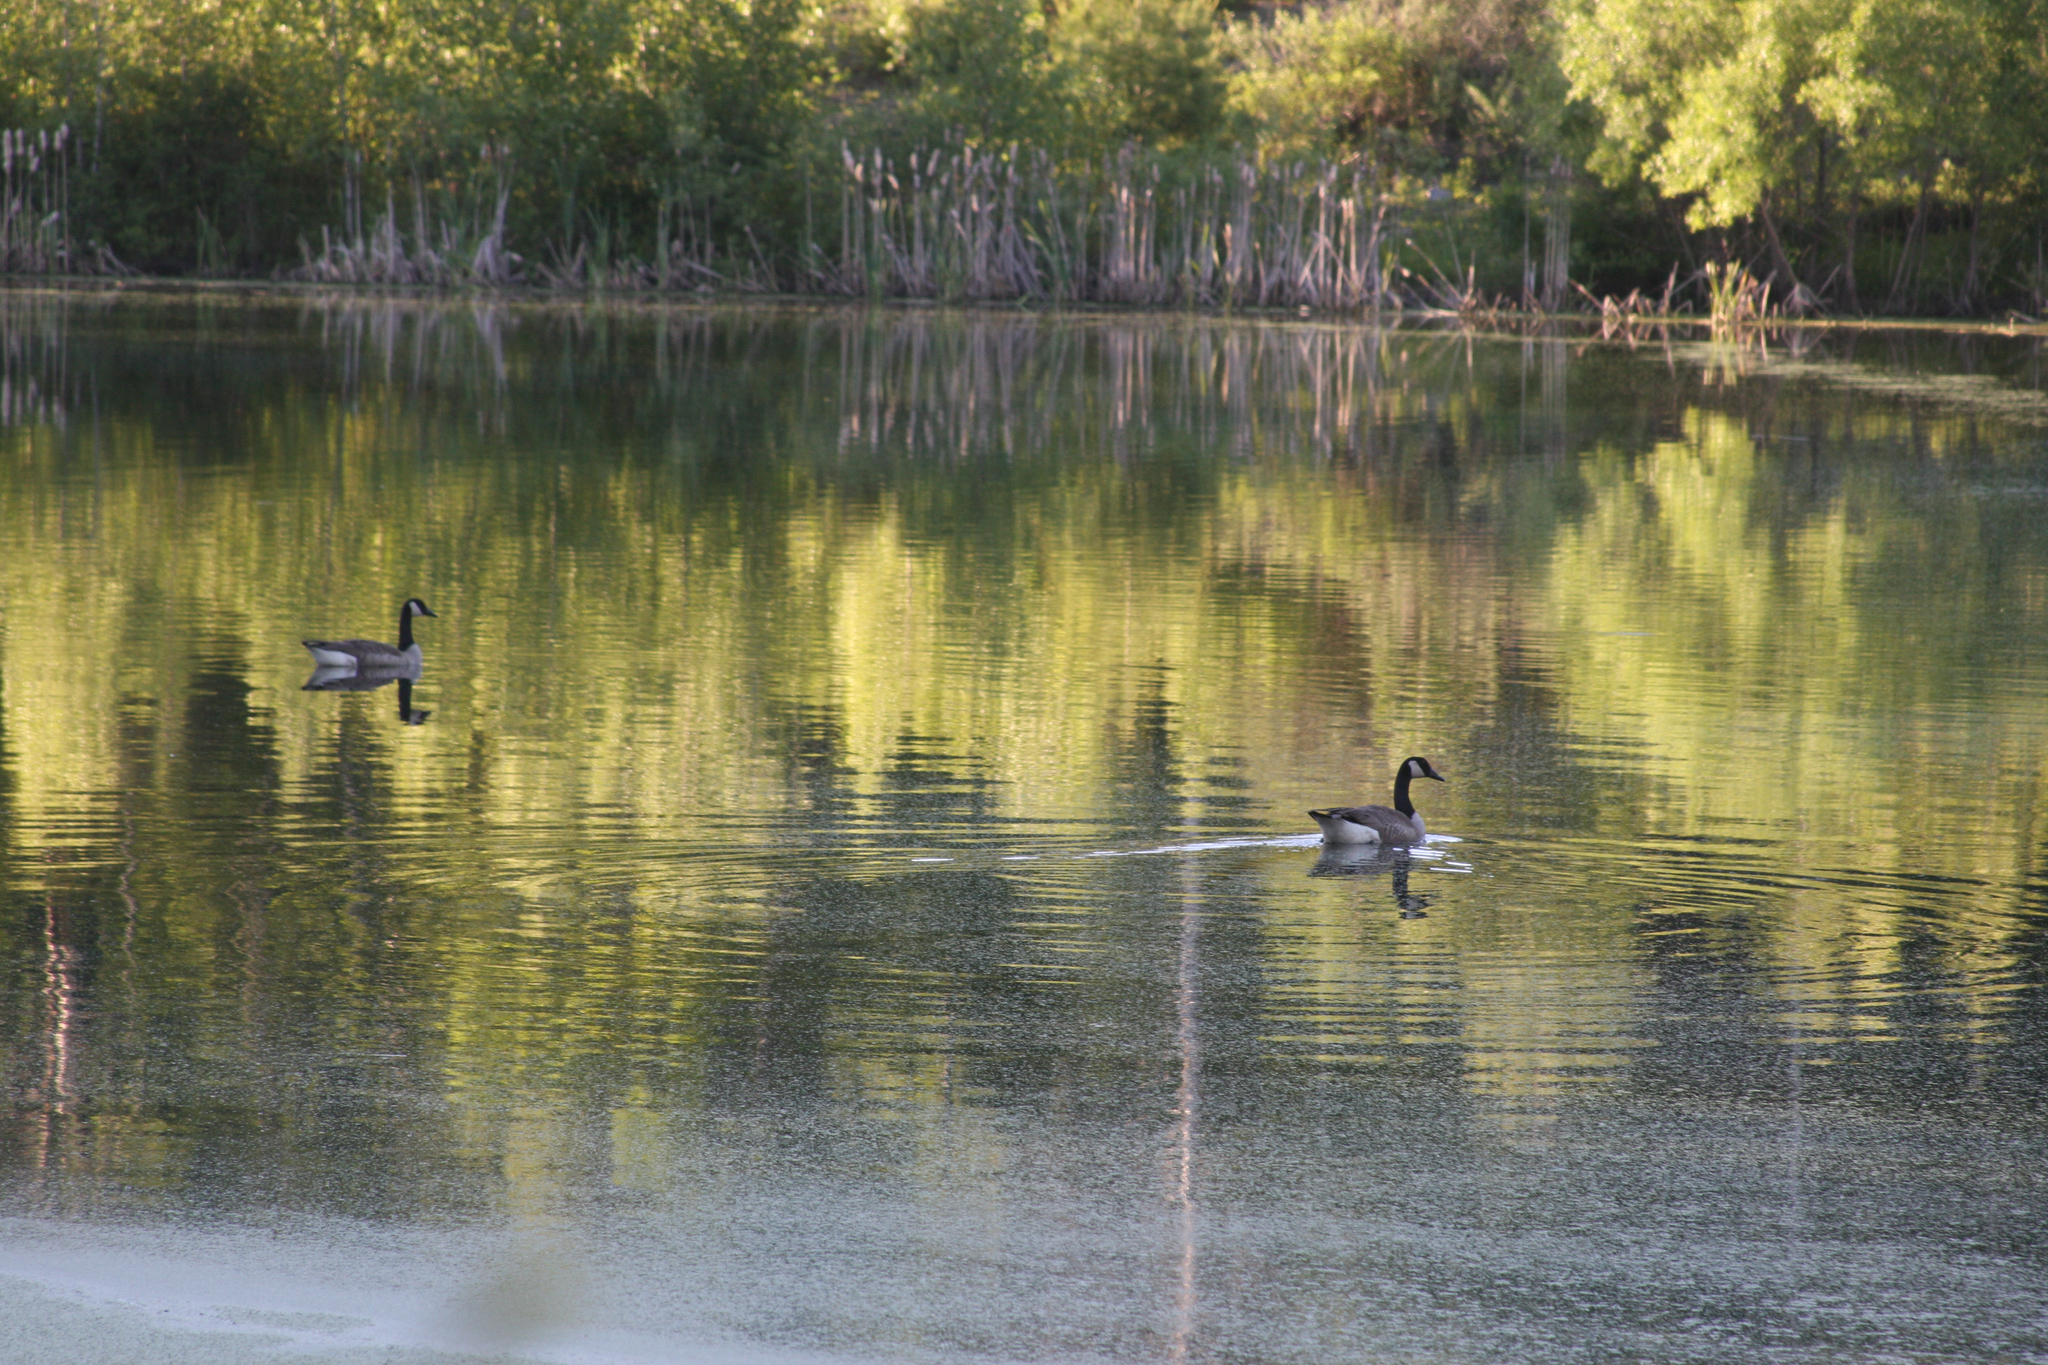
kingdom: Animalia
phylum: Chordata
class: Aves
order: Anseriformes
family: Anatidae
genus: Branta
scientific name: Branta canadensis
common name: Canada goose
